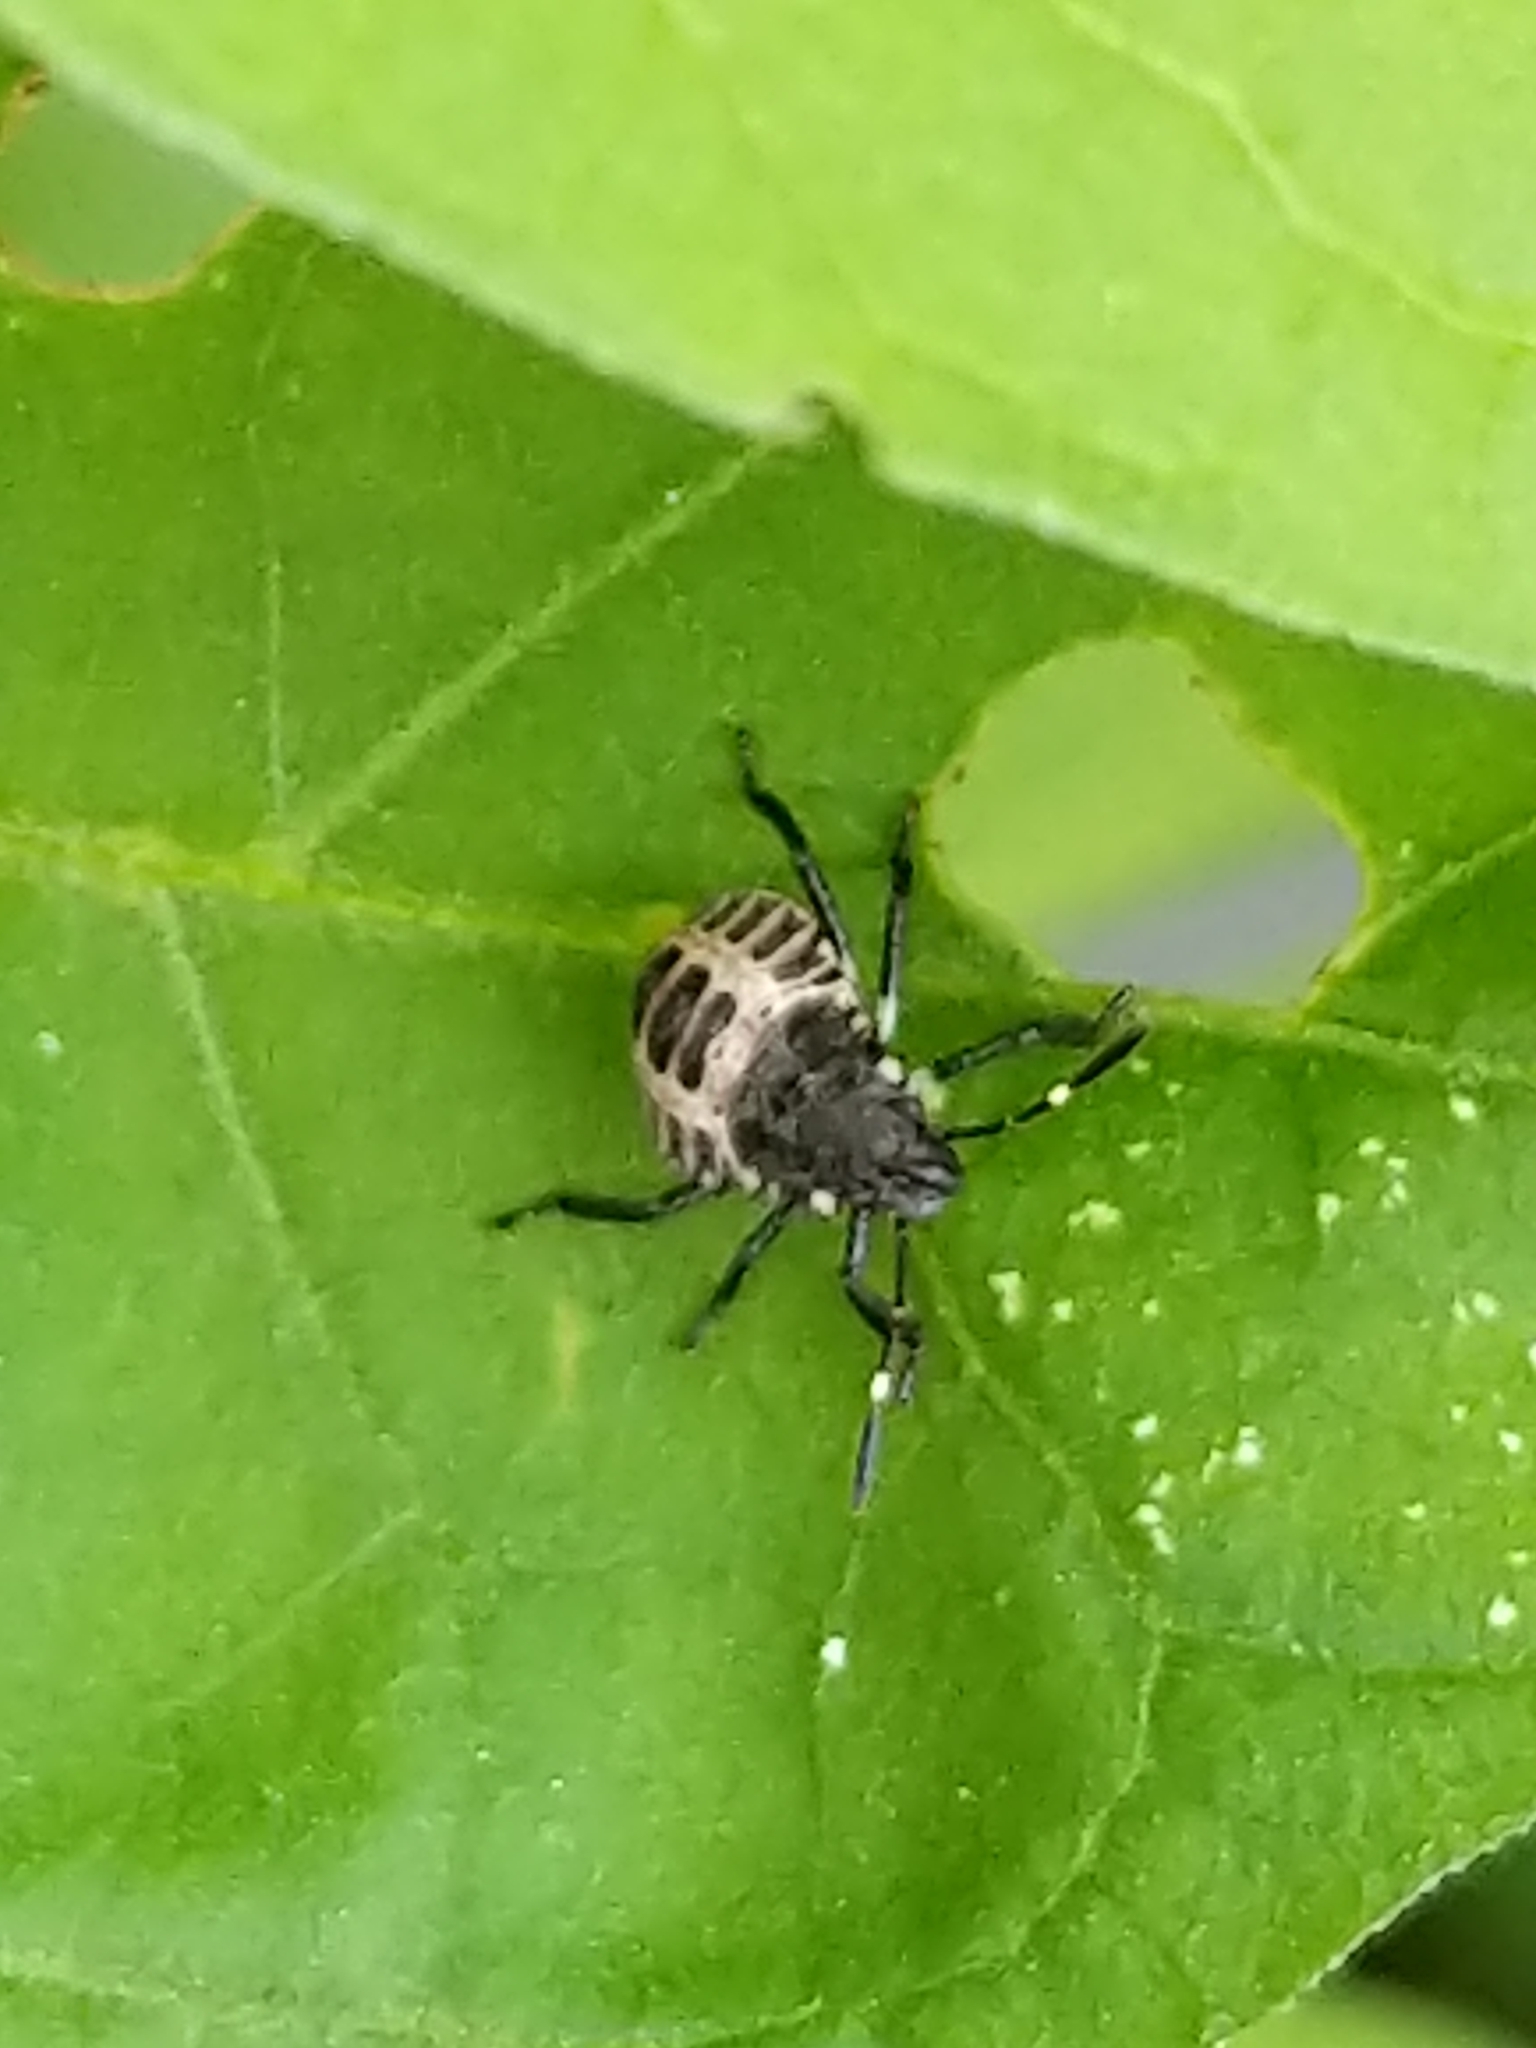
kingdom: Animalia
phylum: Arthropoda
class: Insecta
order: Hemiptera
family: Pentatomidae
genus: Halyomorpha
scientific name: Halyomorpha halys
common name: Brown marmorated stink bug
